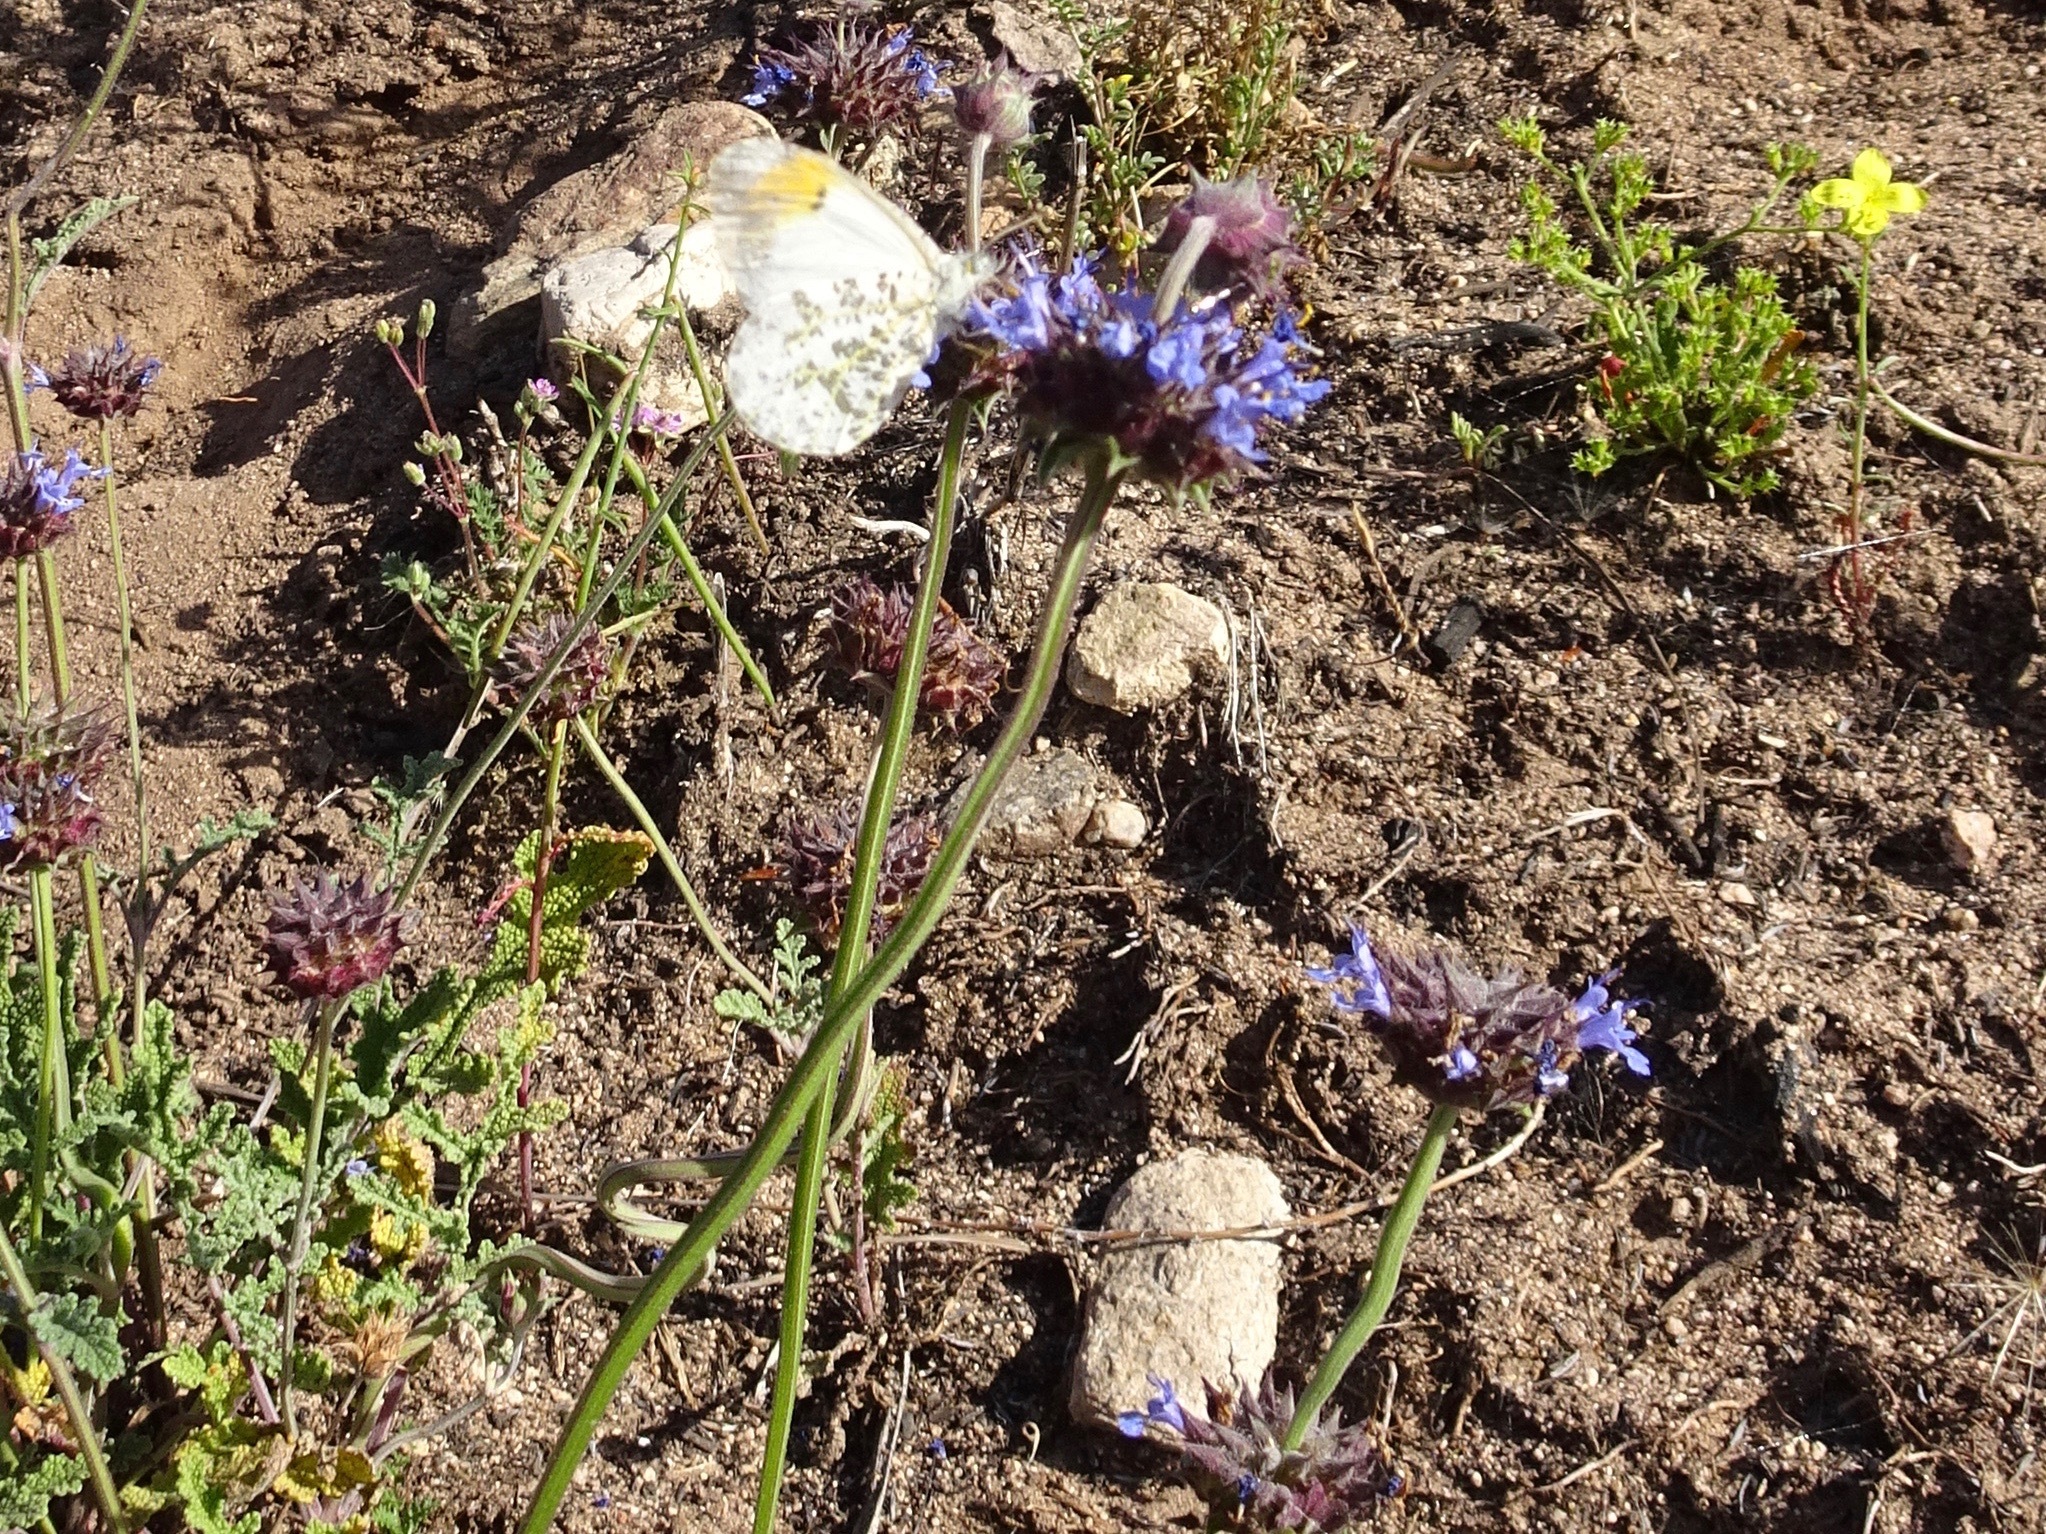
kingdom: Animalia
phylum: Arthropoda
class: Insecta
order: Lepidoptera
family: Pieridae
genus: Anthocharis
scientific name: Anthocharis sara
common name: Sara's orangetip
